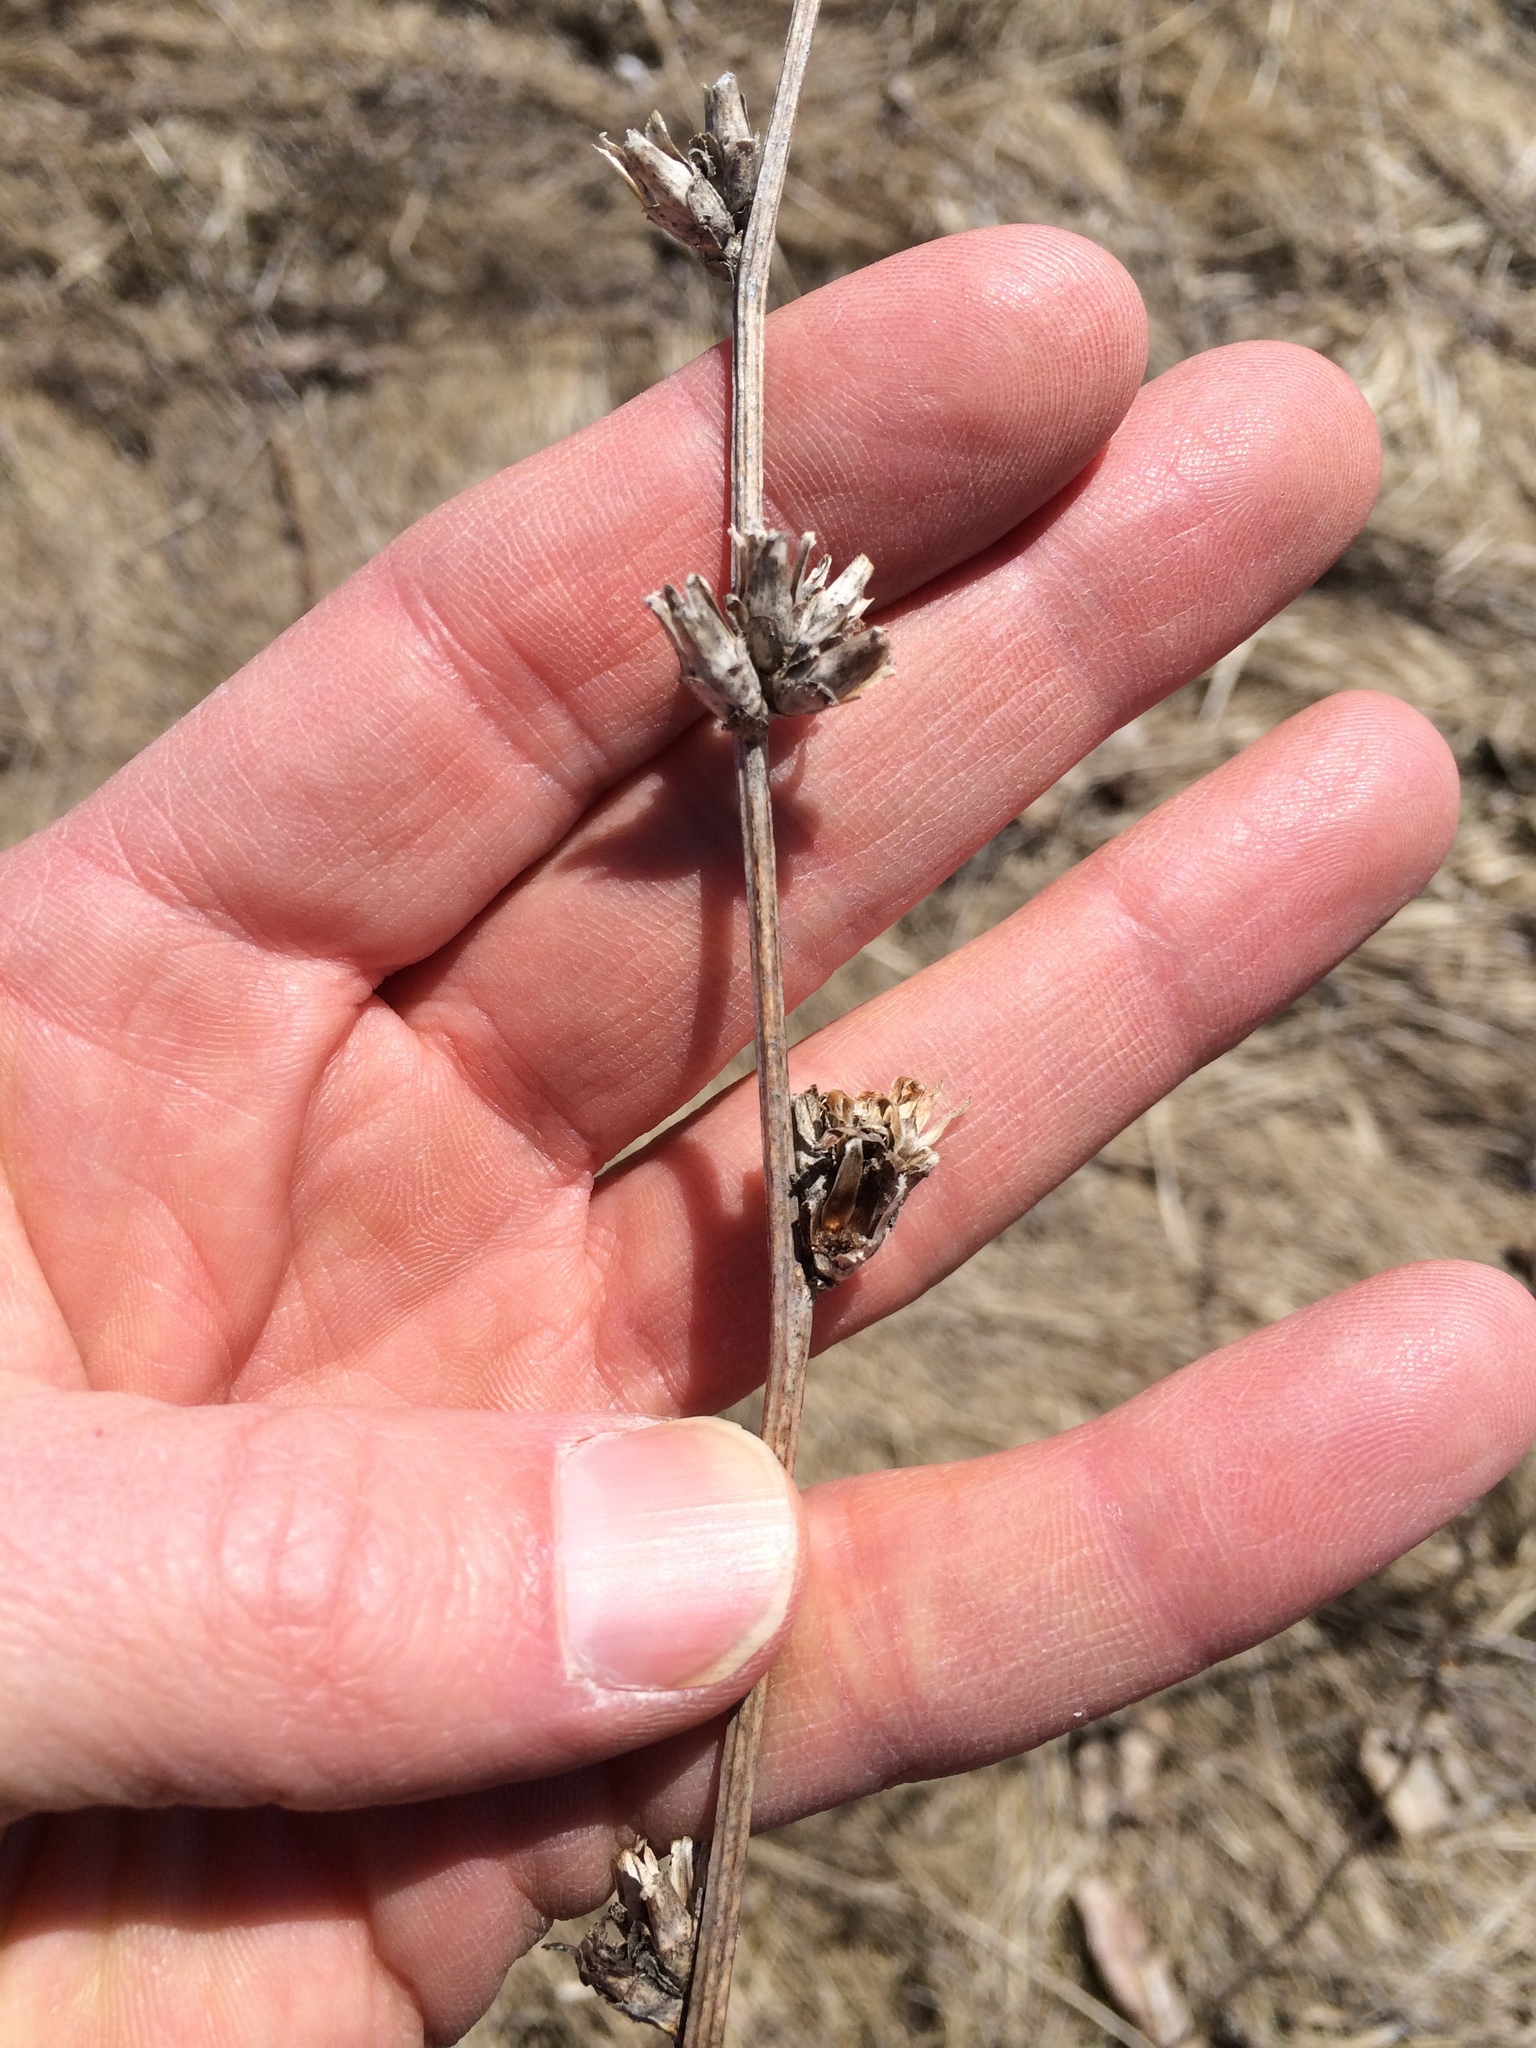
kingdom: Plantae
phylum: Tracheophyta
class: Magnoliopsida
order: Asterales
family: Asteraceae
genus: Cichorium
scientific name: Cichorium intybus
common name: Chicory
